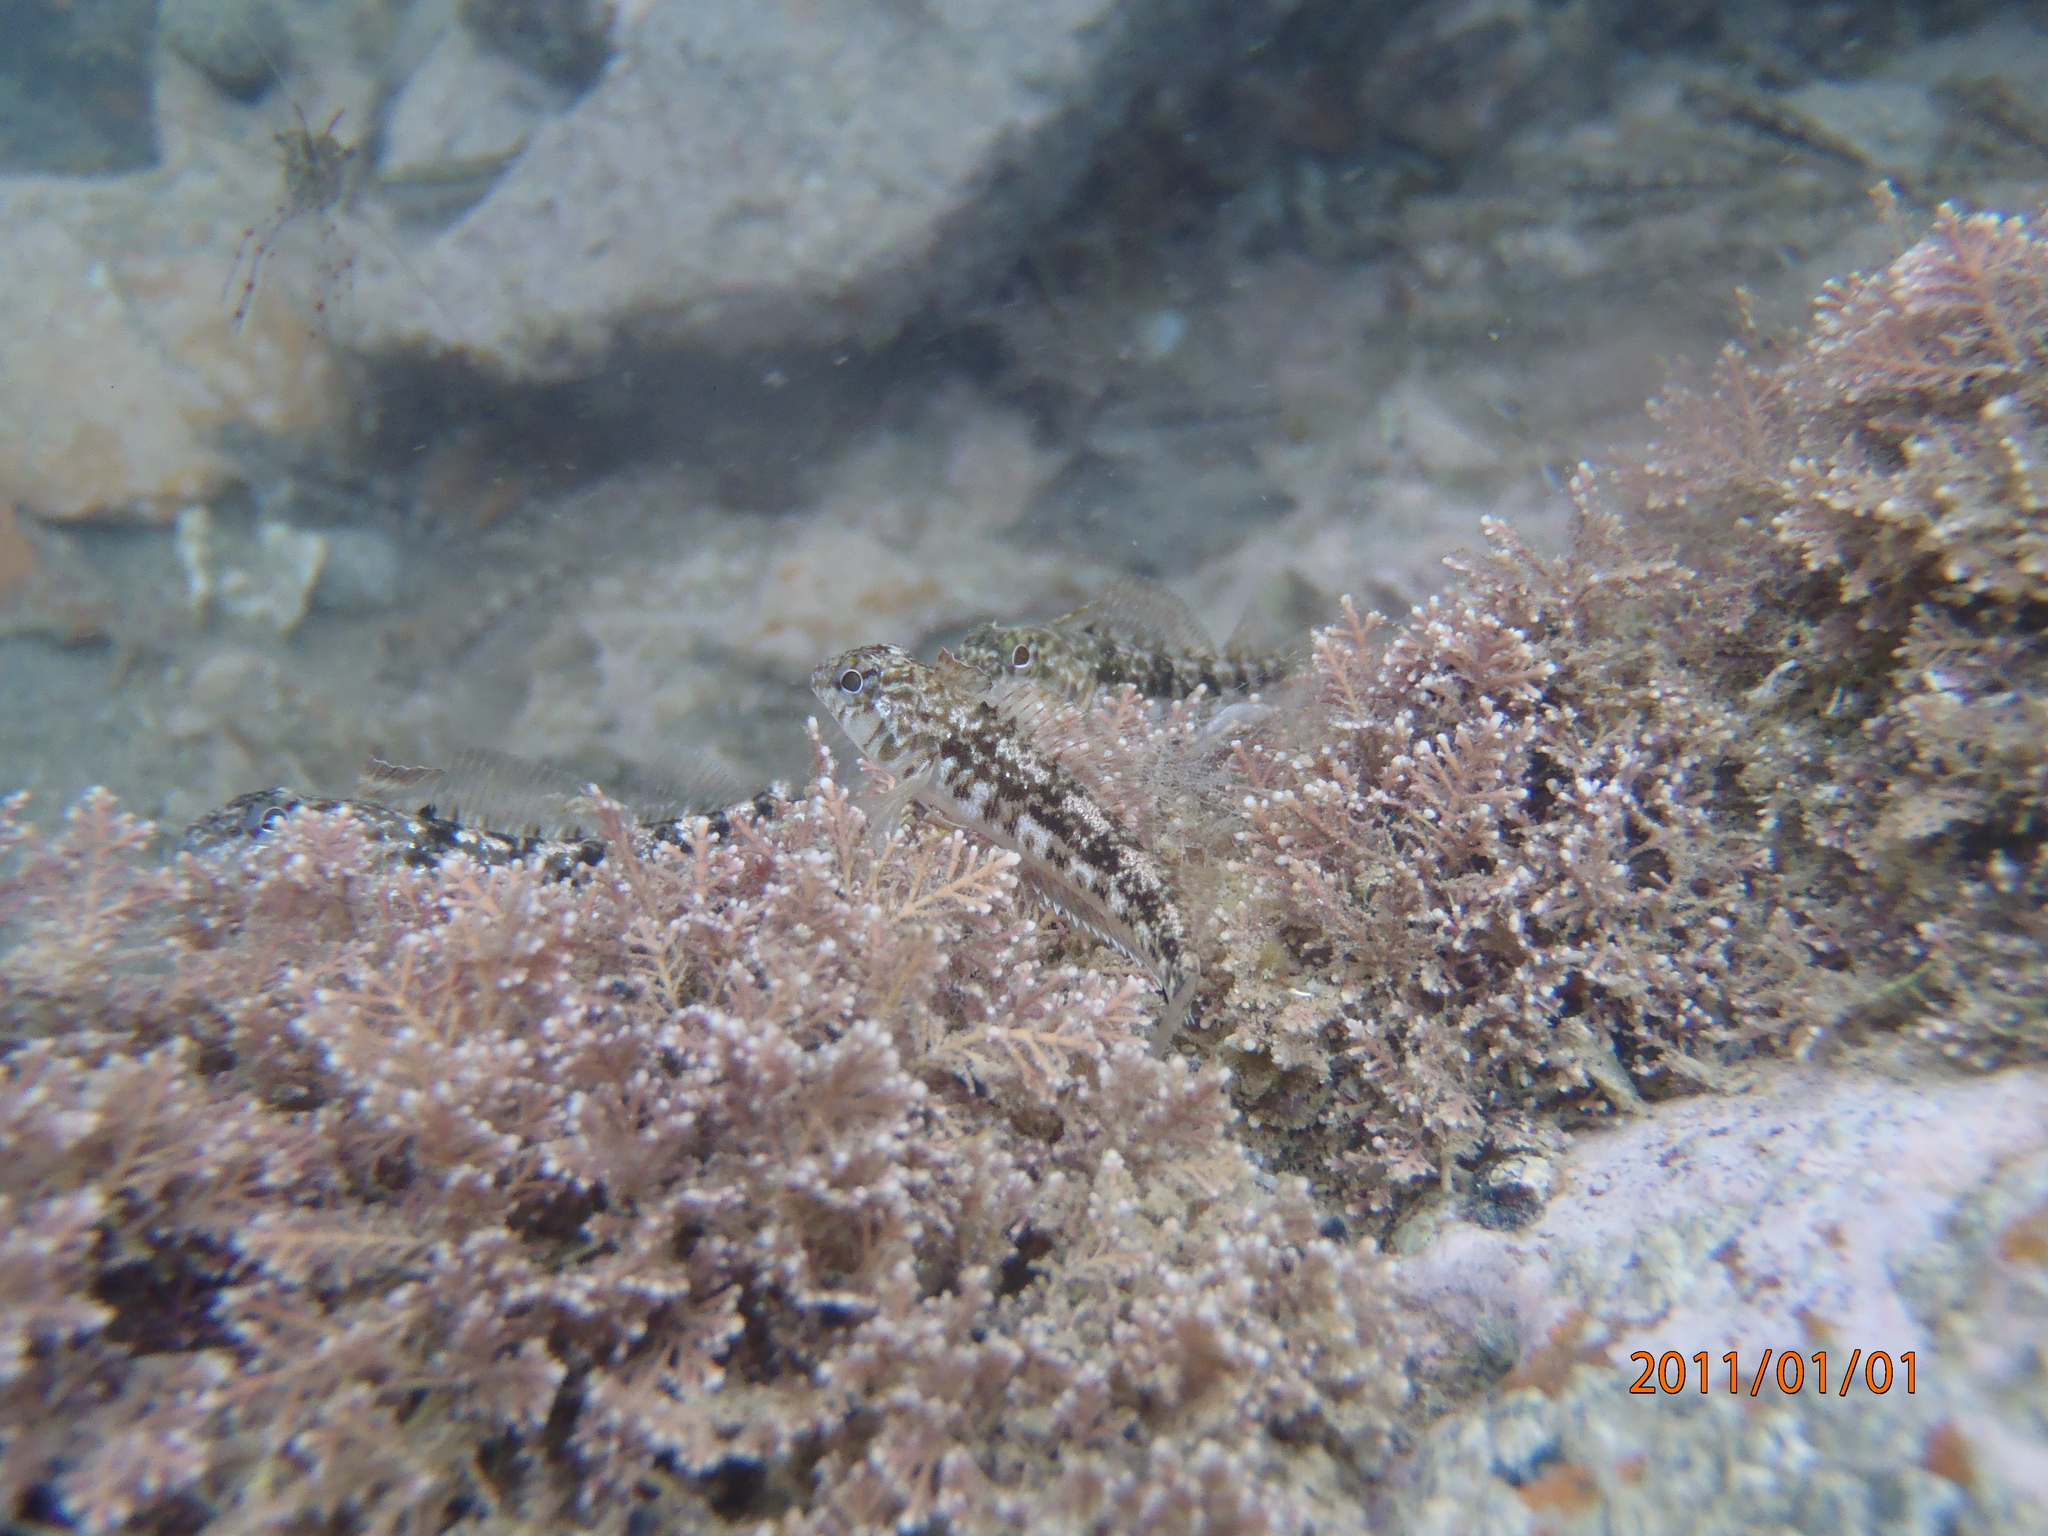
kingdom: Animalia
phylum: Chordata
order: Perciformes
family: Tripterygiidae
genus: Forsterygion
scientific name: Forsterygion nigripenne
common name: Cockabully
